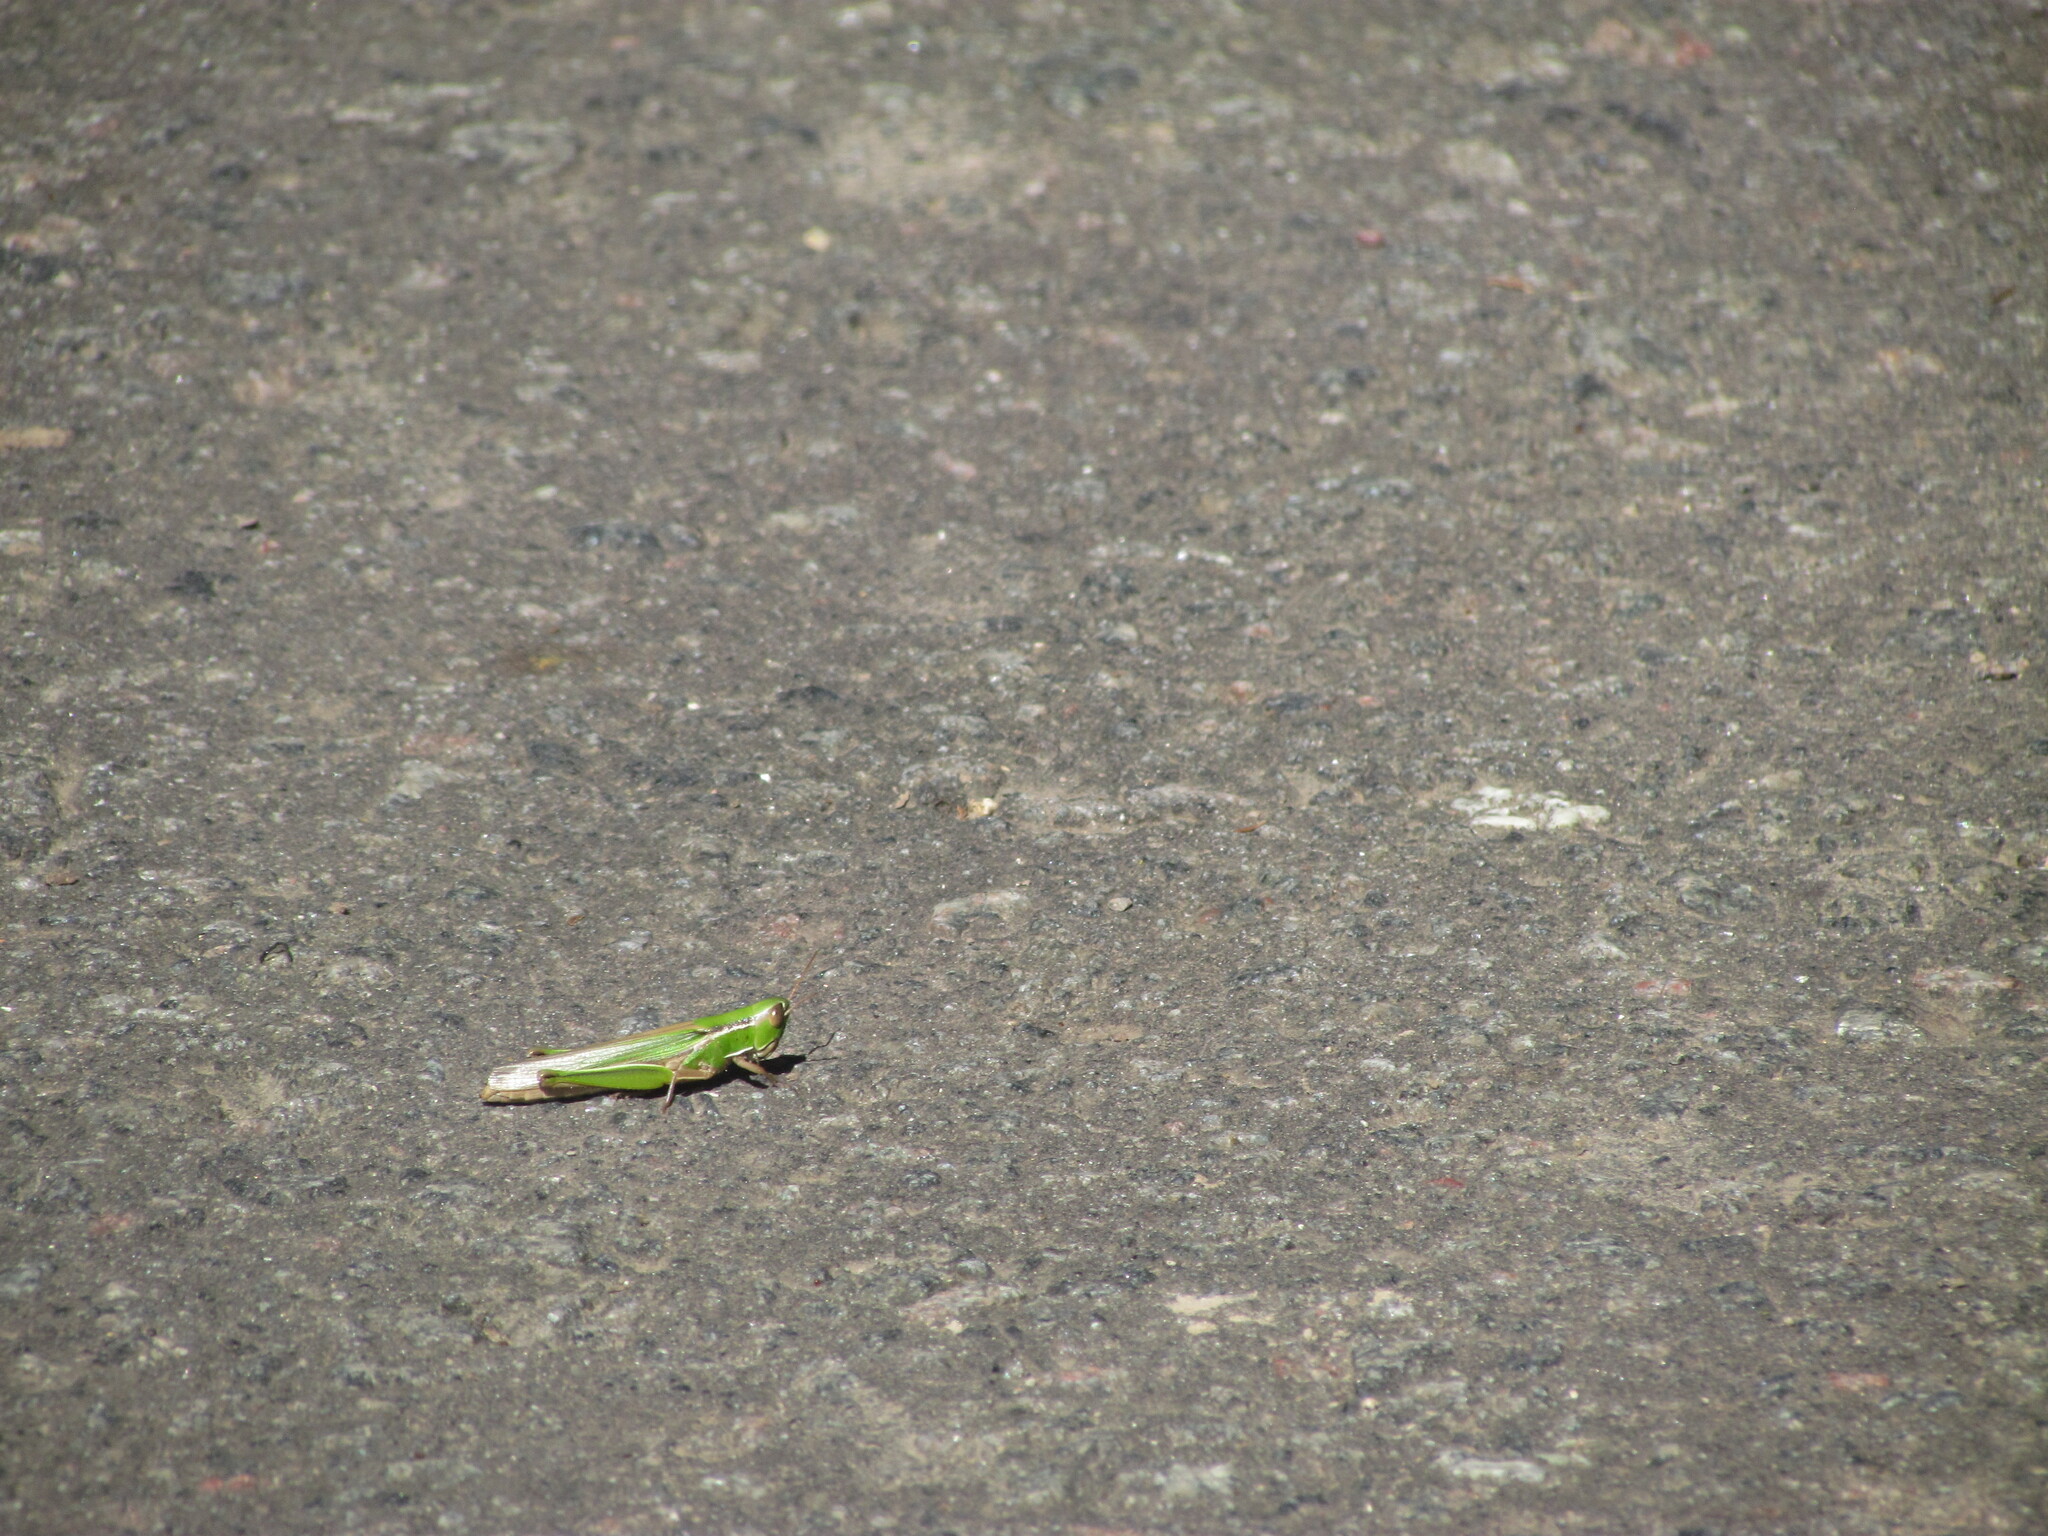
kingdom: Animalia
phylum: Arthropoda
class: Insecta
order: Orthoptera
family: Acrididae
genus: Aleuas
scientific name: Aleuas lineatus
